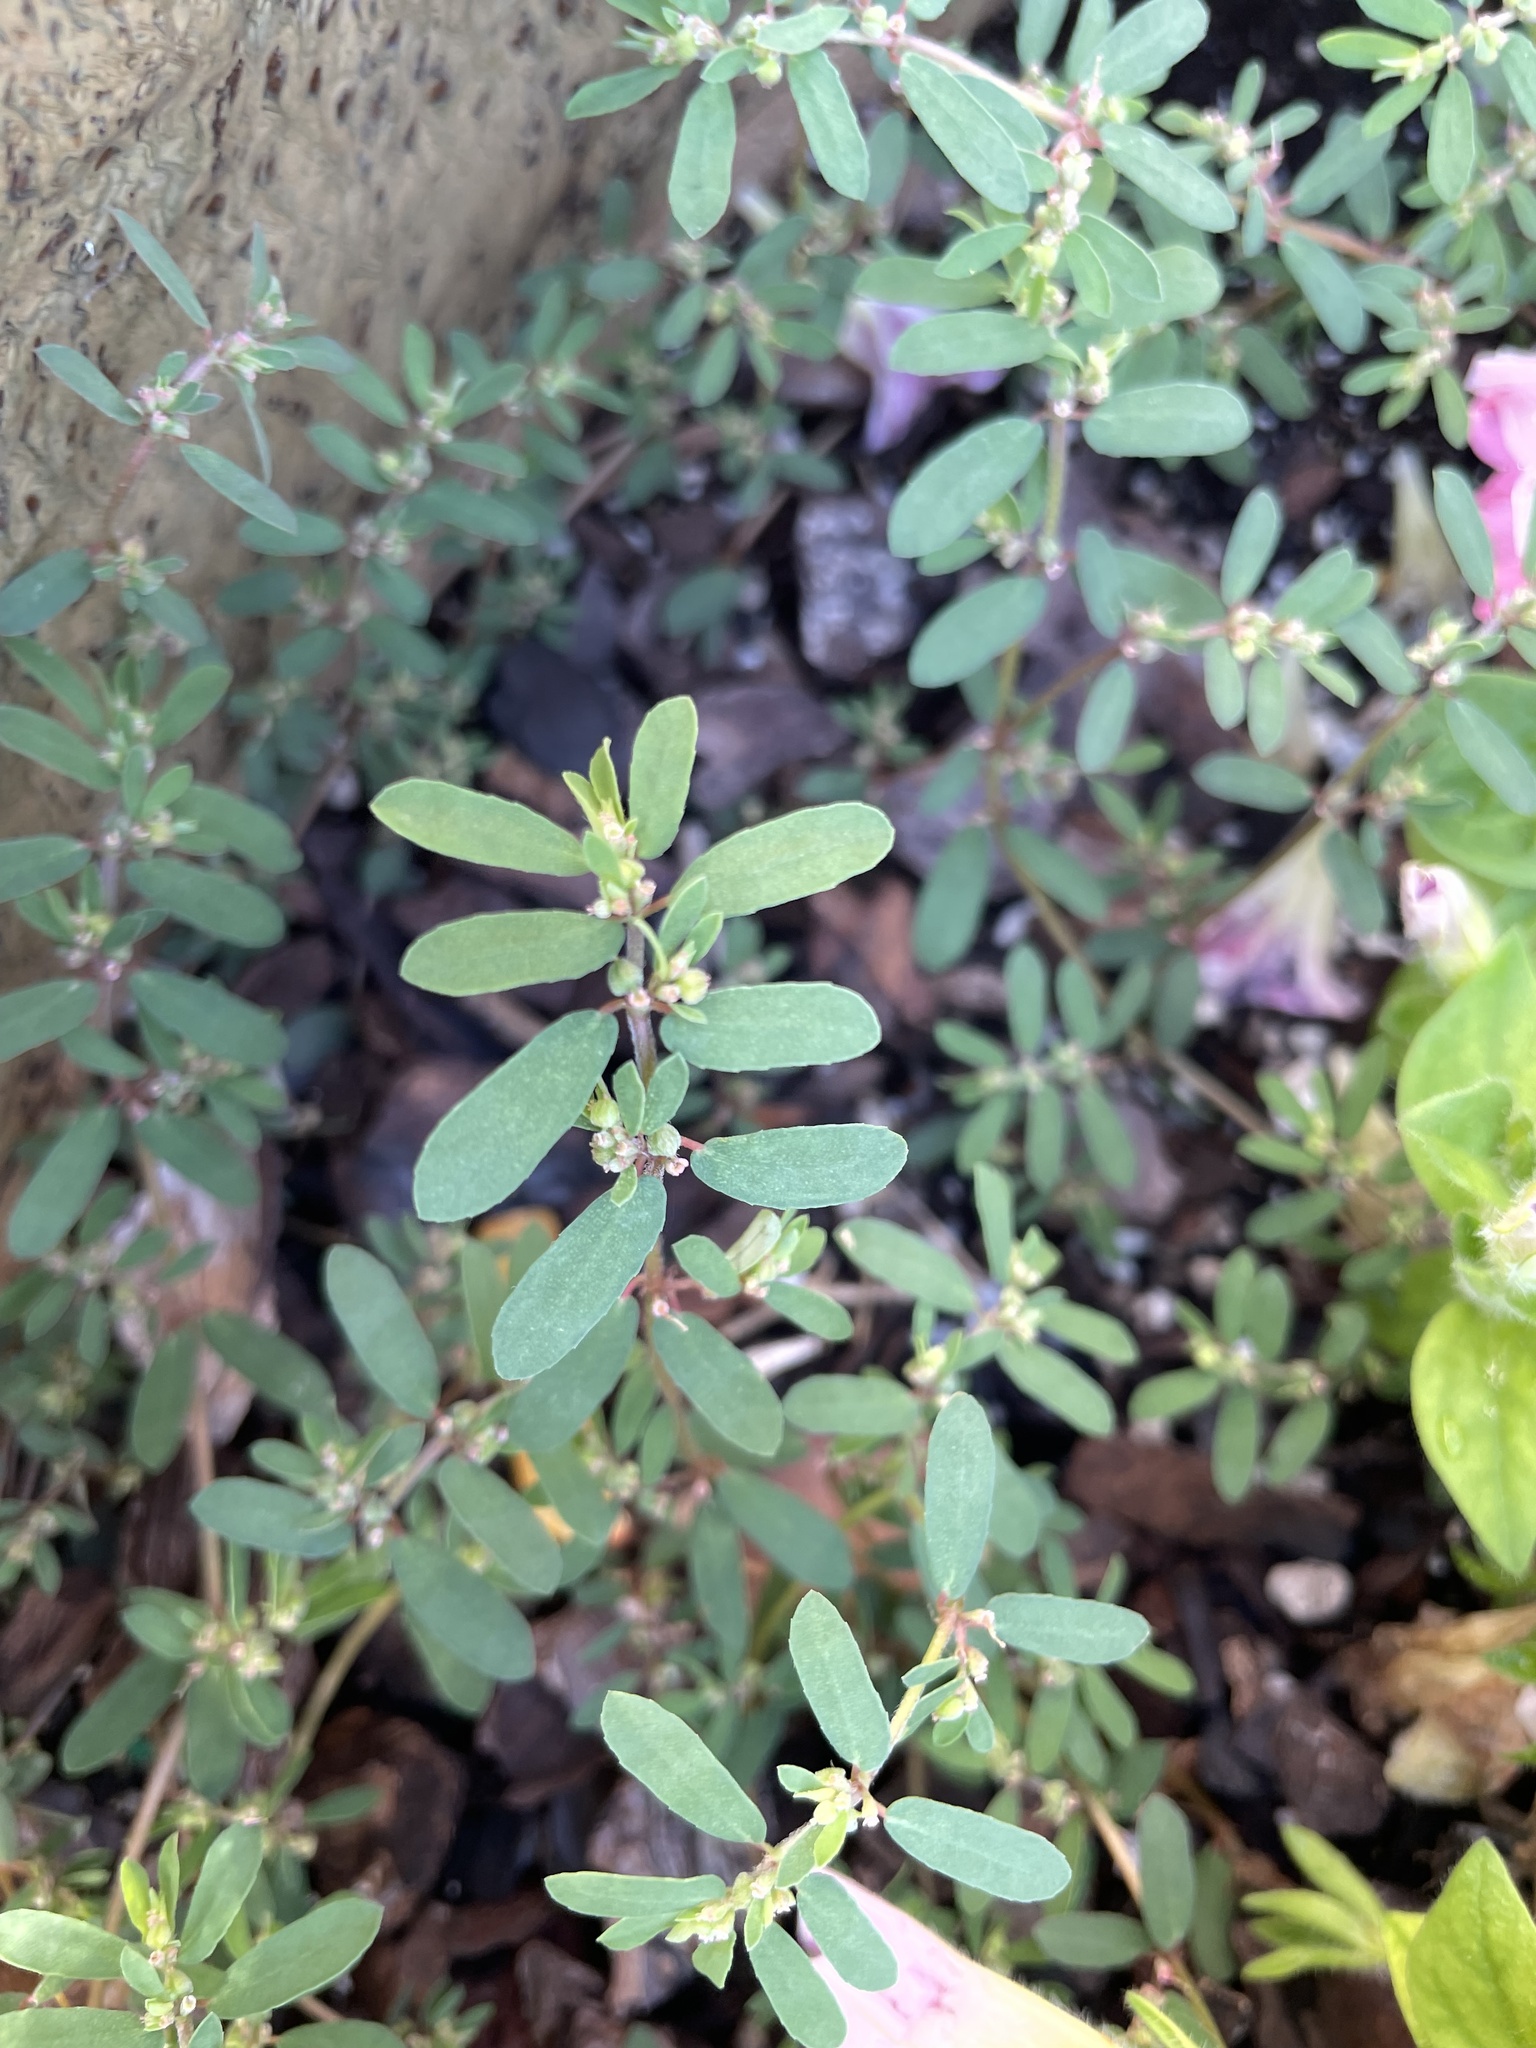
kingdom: Plantae
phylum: Tracheophyta
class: Magnoliopsida
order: Malpighiales
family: Euphorbiaceae
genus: Euphorbia
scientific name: Euphorbia maculata
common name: Spotted spurge
